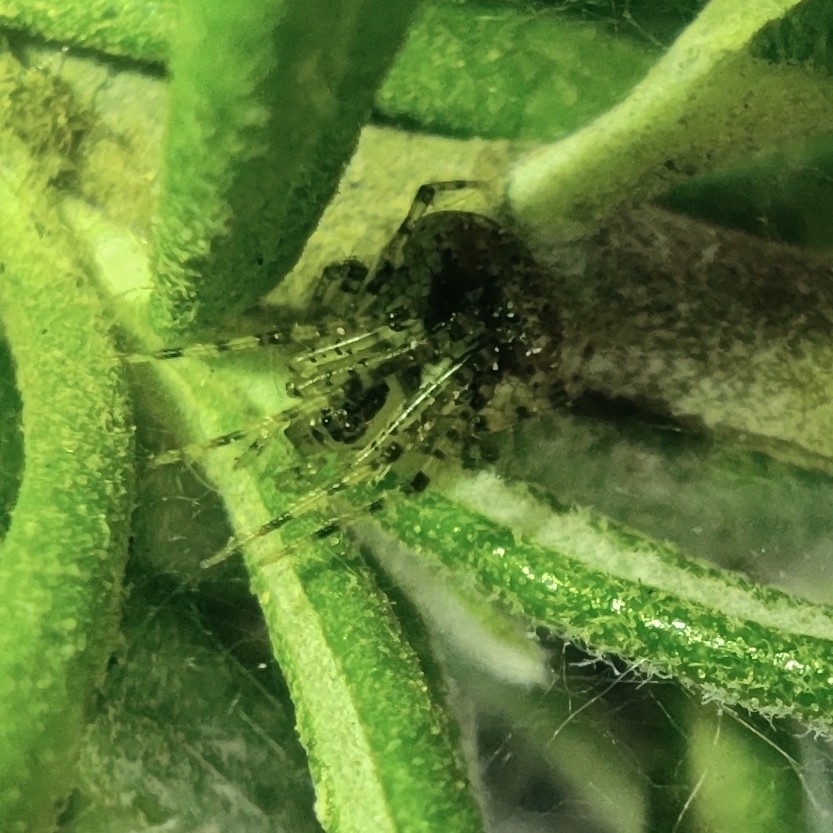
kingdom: Animalia
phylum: Arthropoda
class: Arachnida
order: Araneae
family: Theridiidae
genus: Platnickina
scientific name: Platnickina tincta
